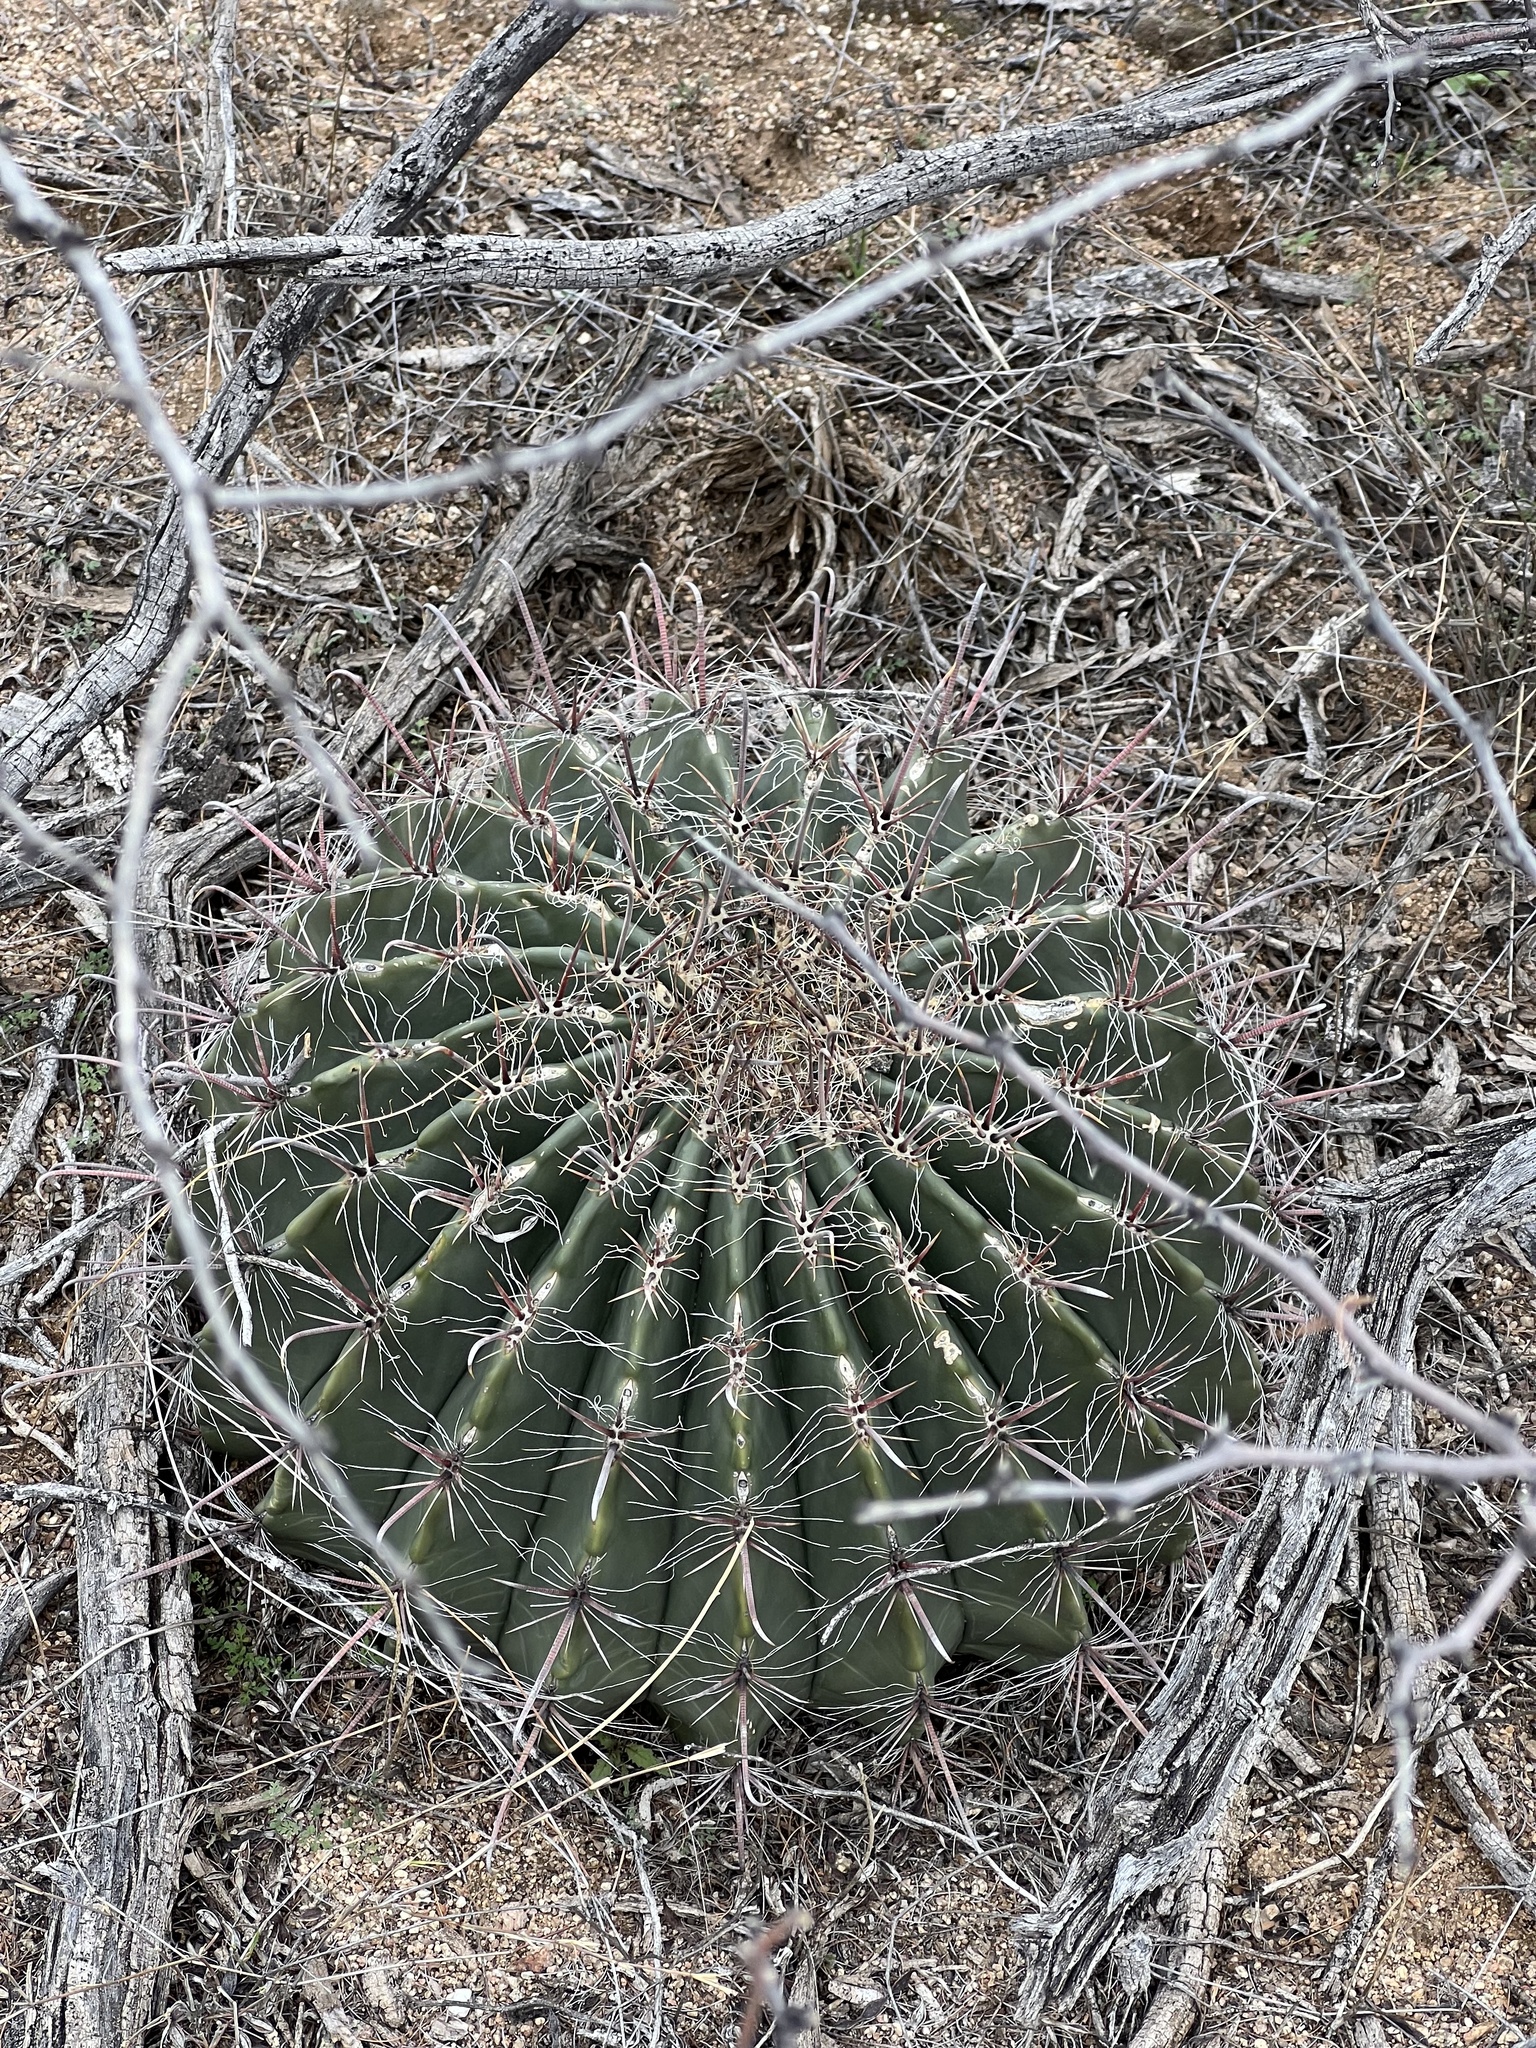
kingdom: Plantae
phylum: Tracheophyta
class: Magnoliopsida
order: Caryophyllales
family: Cactaceae
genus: Ferocactus
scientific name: Ferocactus wislizeni
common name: Candy barrel cactus
